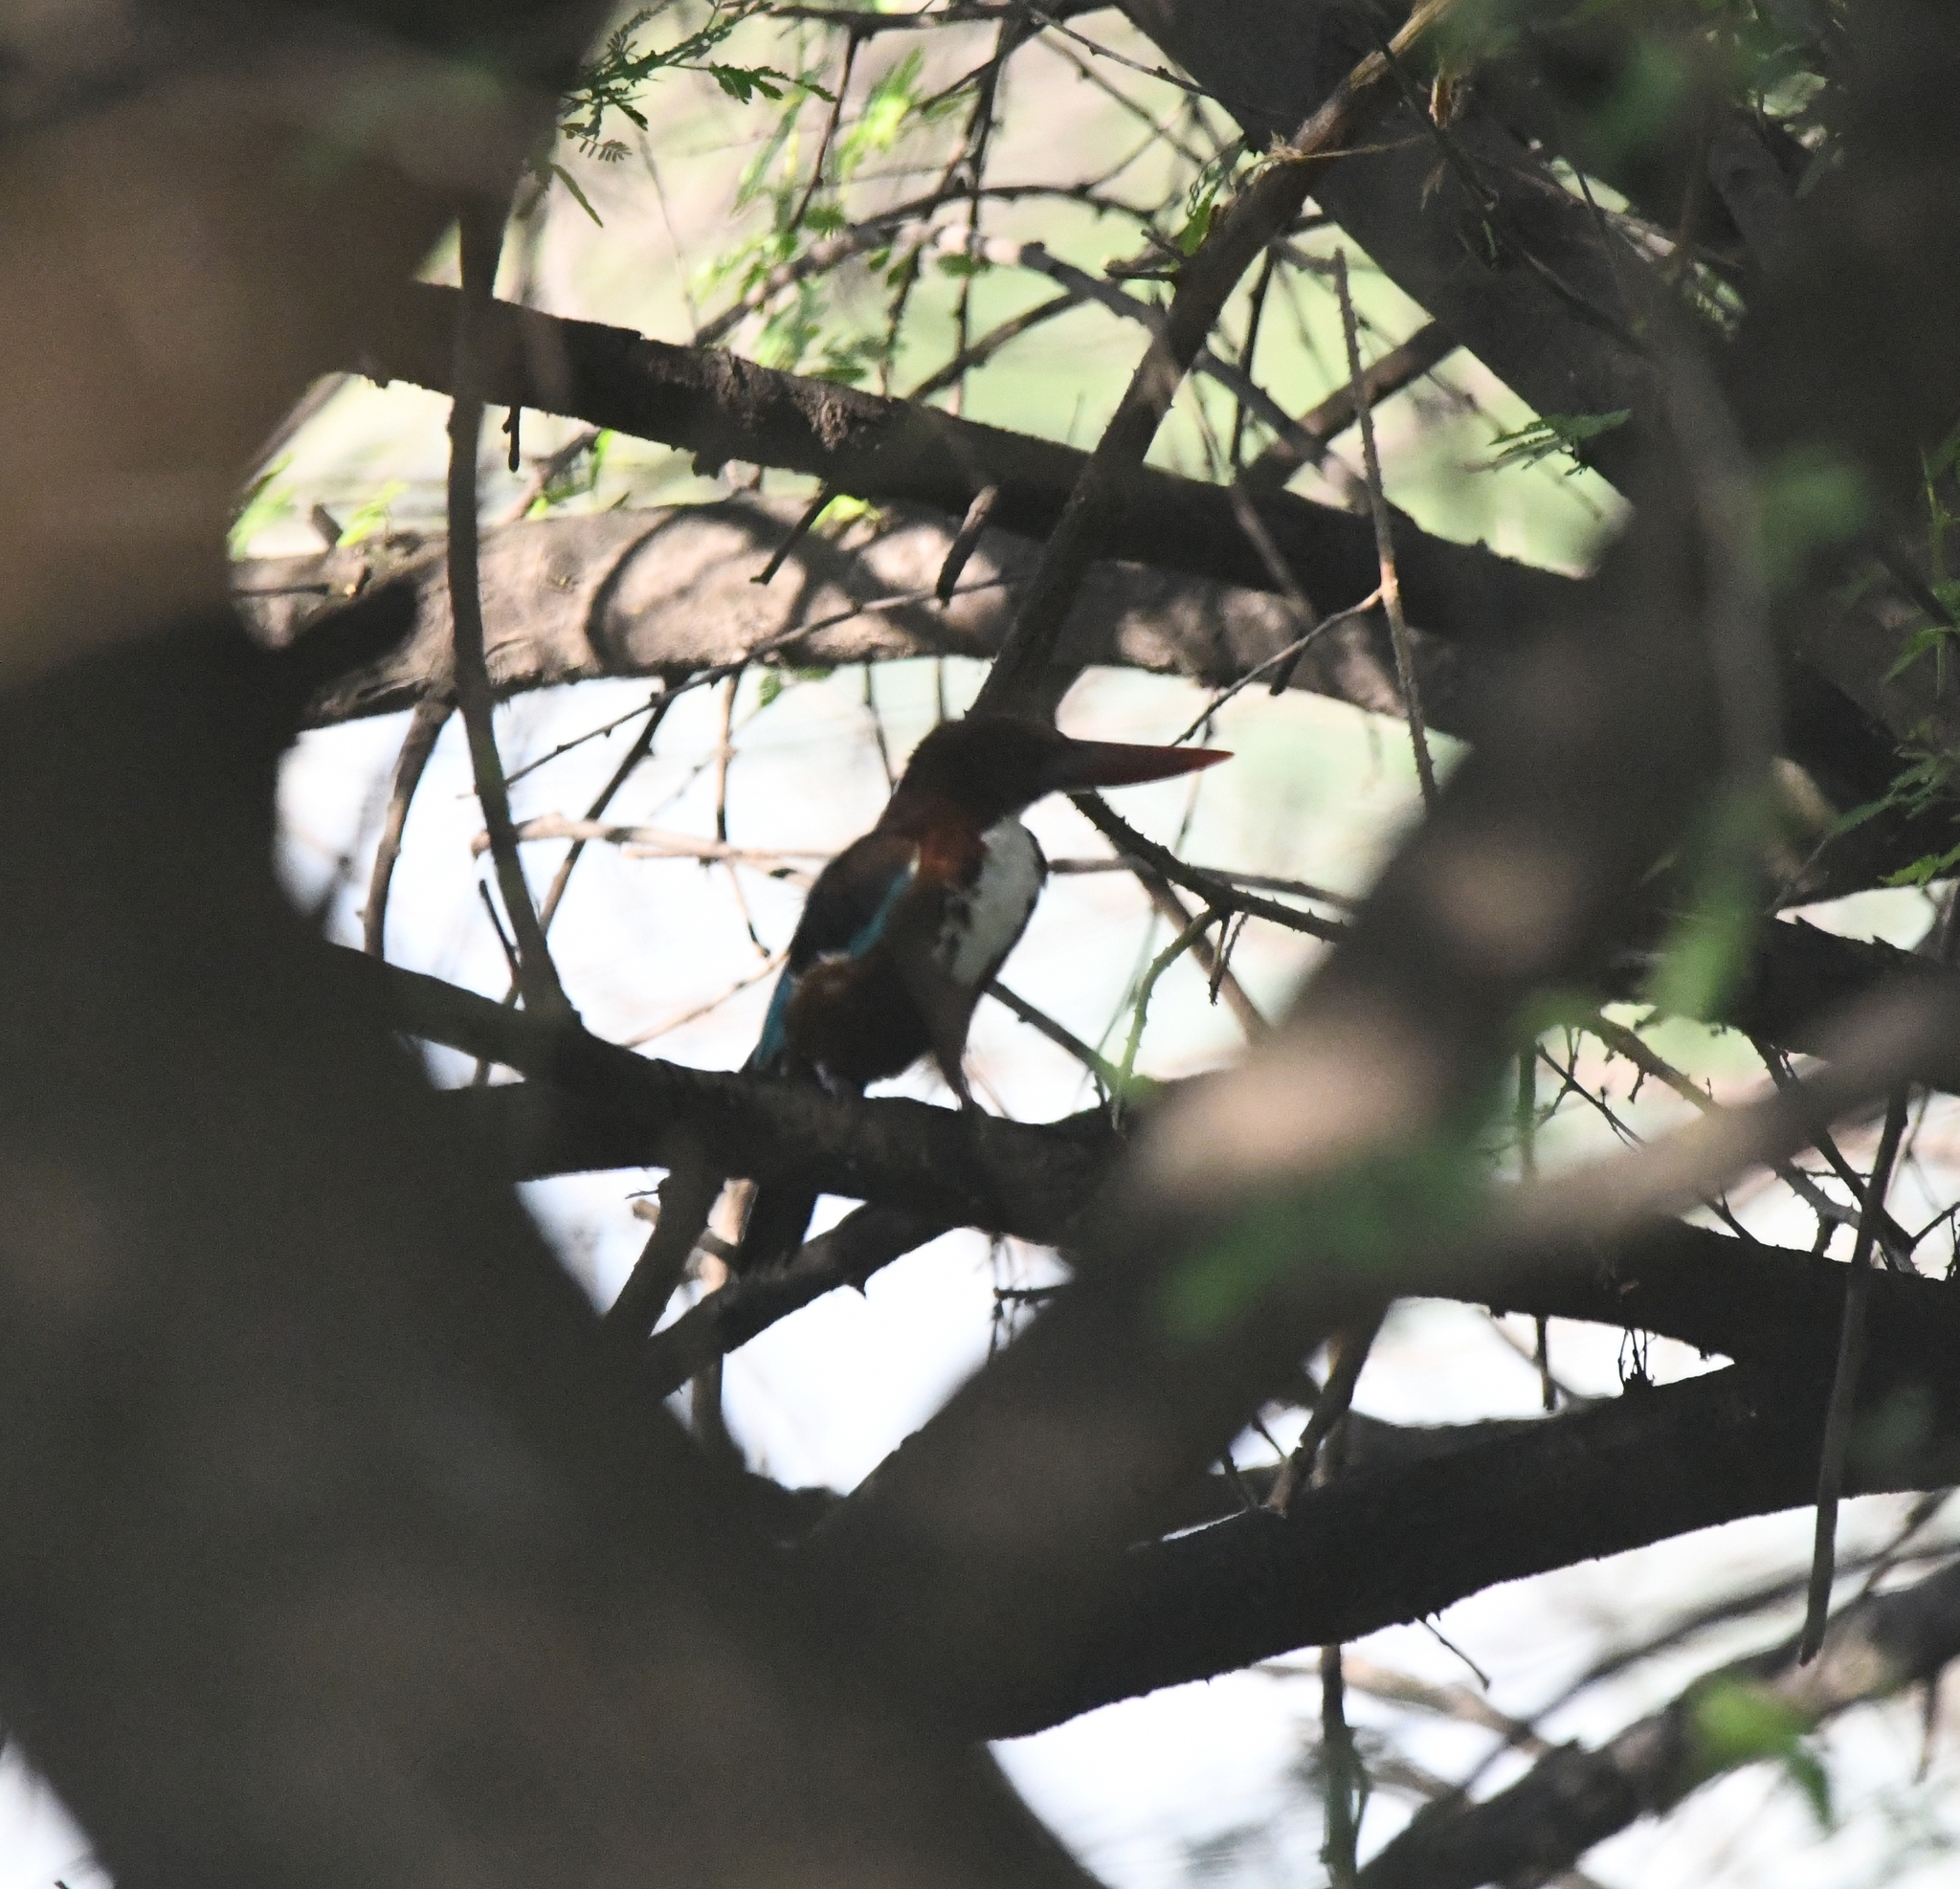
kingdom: Animalia
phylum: Chordata
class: Aves
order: Coraciiformes
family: Alcedinidae
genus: Halcyon
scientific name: Halcyon smyrnensis
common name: White-throated kingfisher
